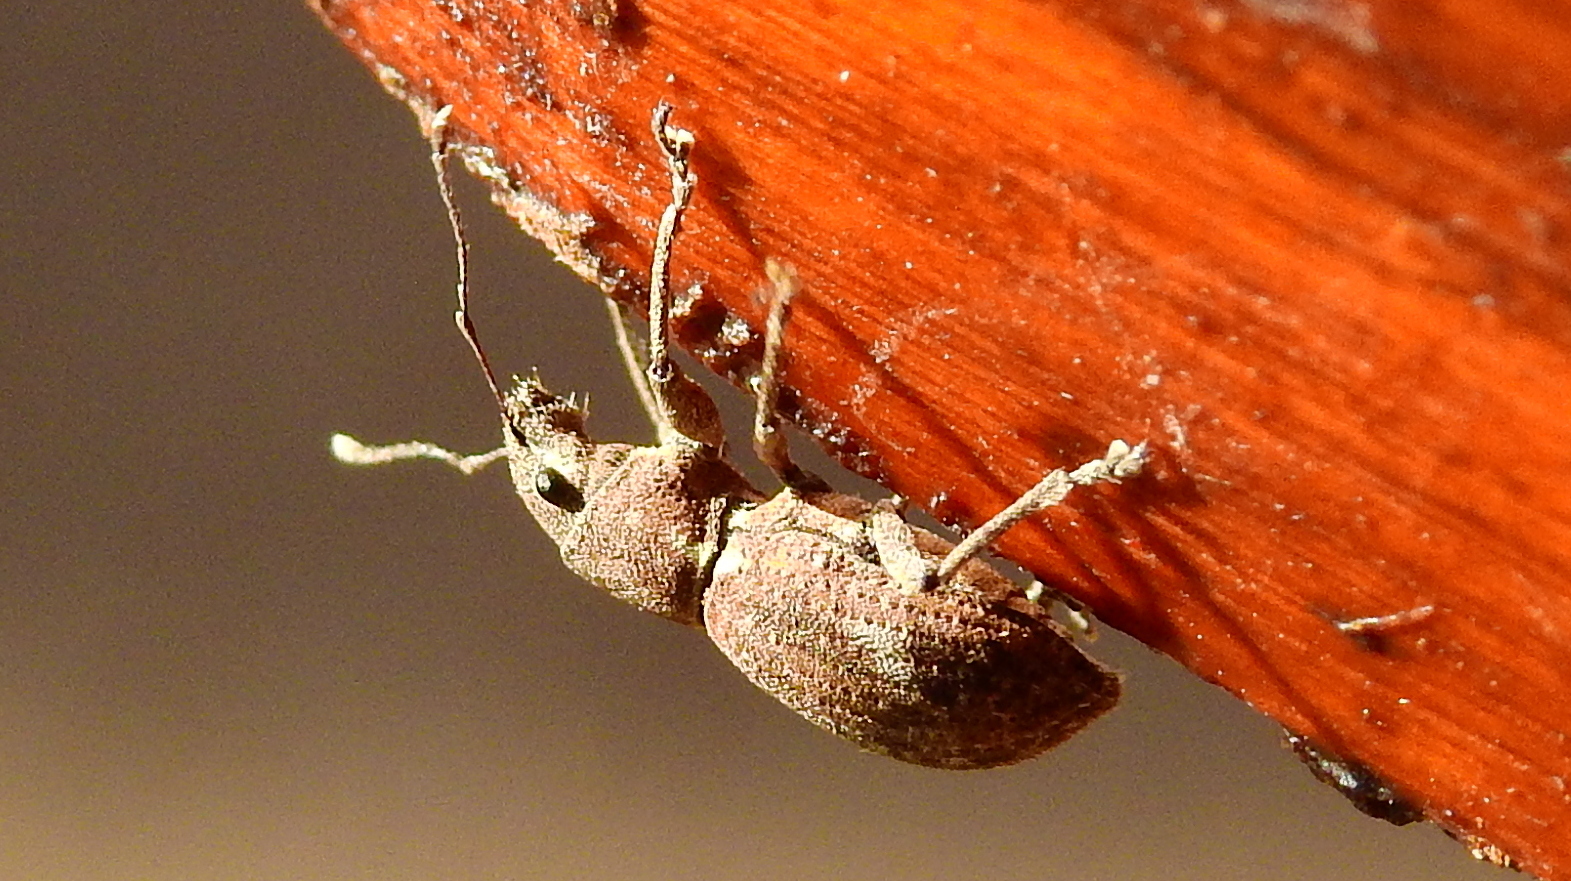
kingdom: Animalia
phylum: Arthropoda
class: Insecta
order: Coleoptera
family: Curculionidae
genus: Naupactus
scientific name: Naupactus cervinus
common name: Fuller rose beetle
